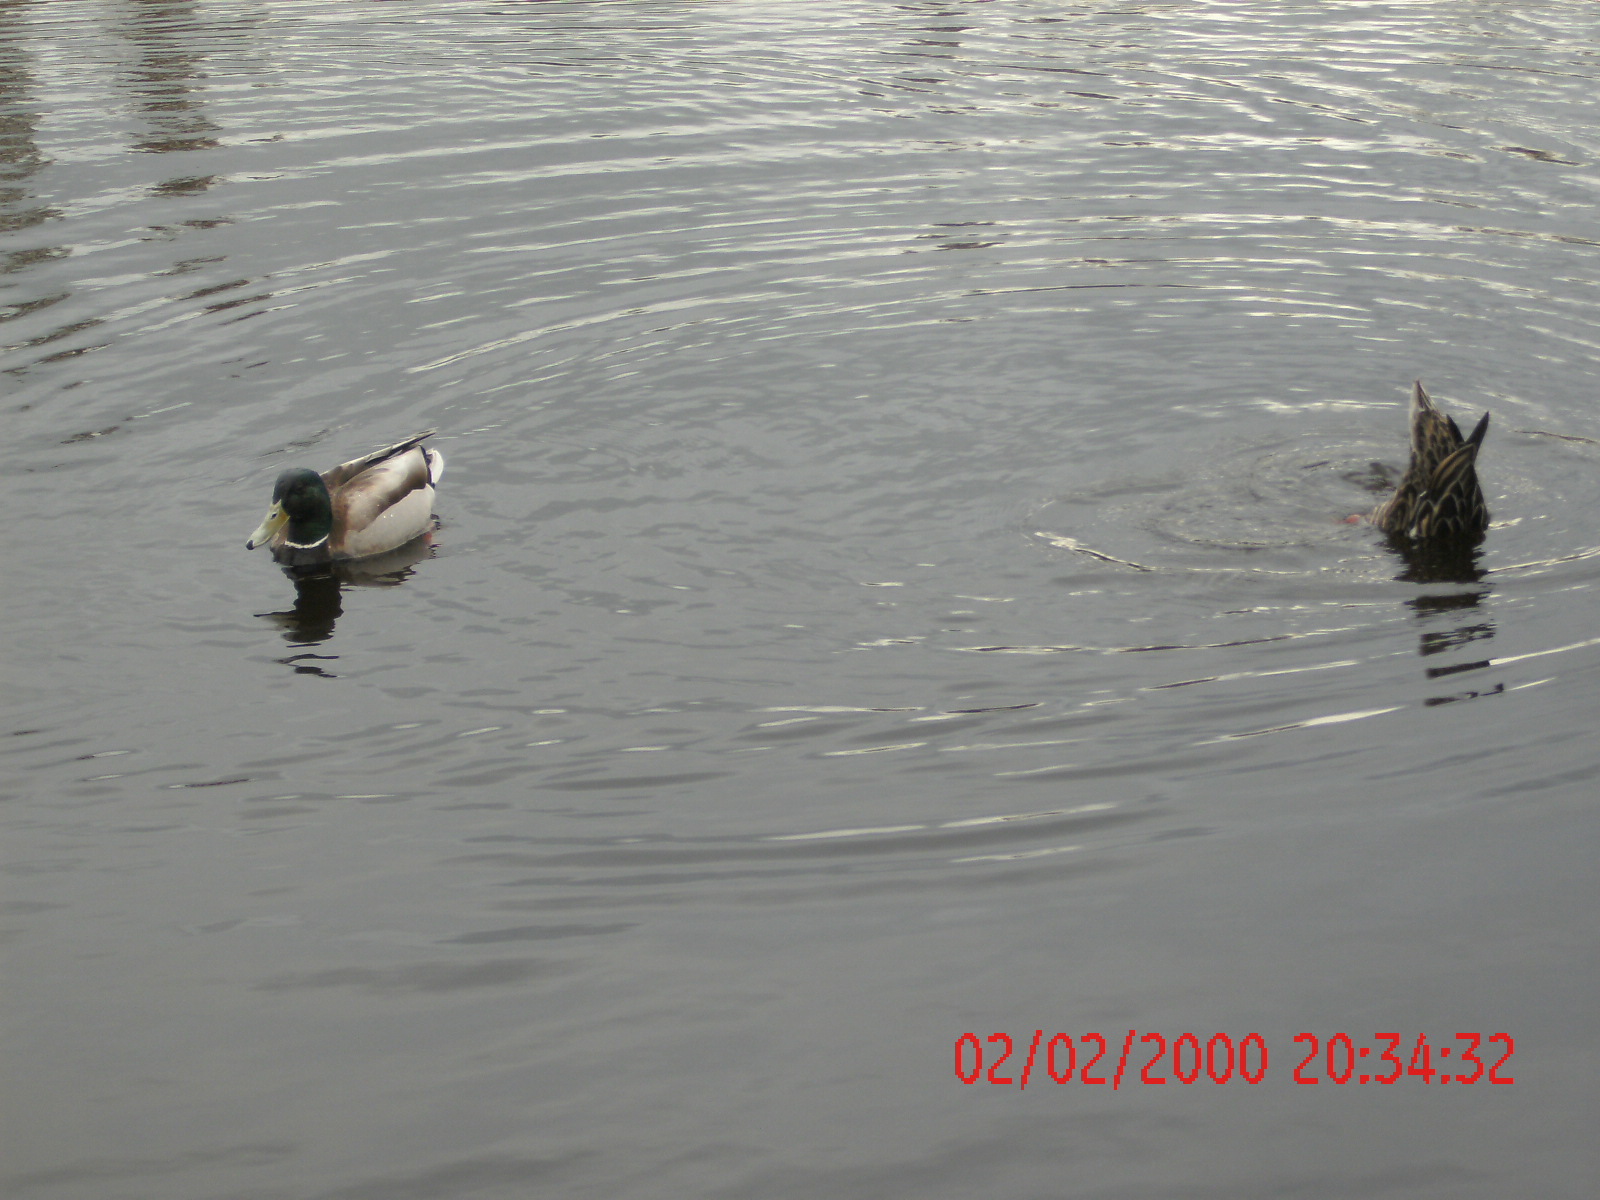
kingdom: Animalia
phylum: Chordata
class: Aves
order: Anseriformes
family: Anatidae
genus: Anas
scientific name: Anas platyrhynchos
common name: Mallard
